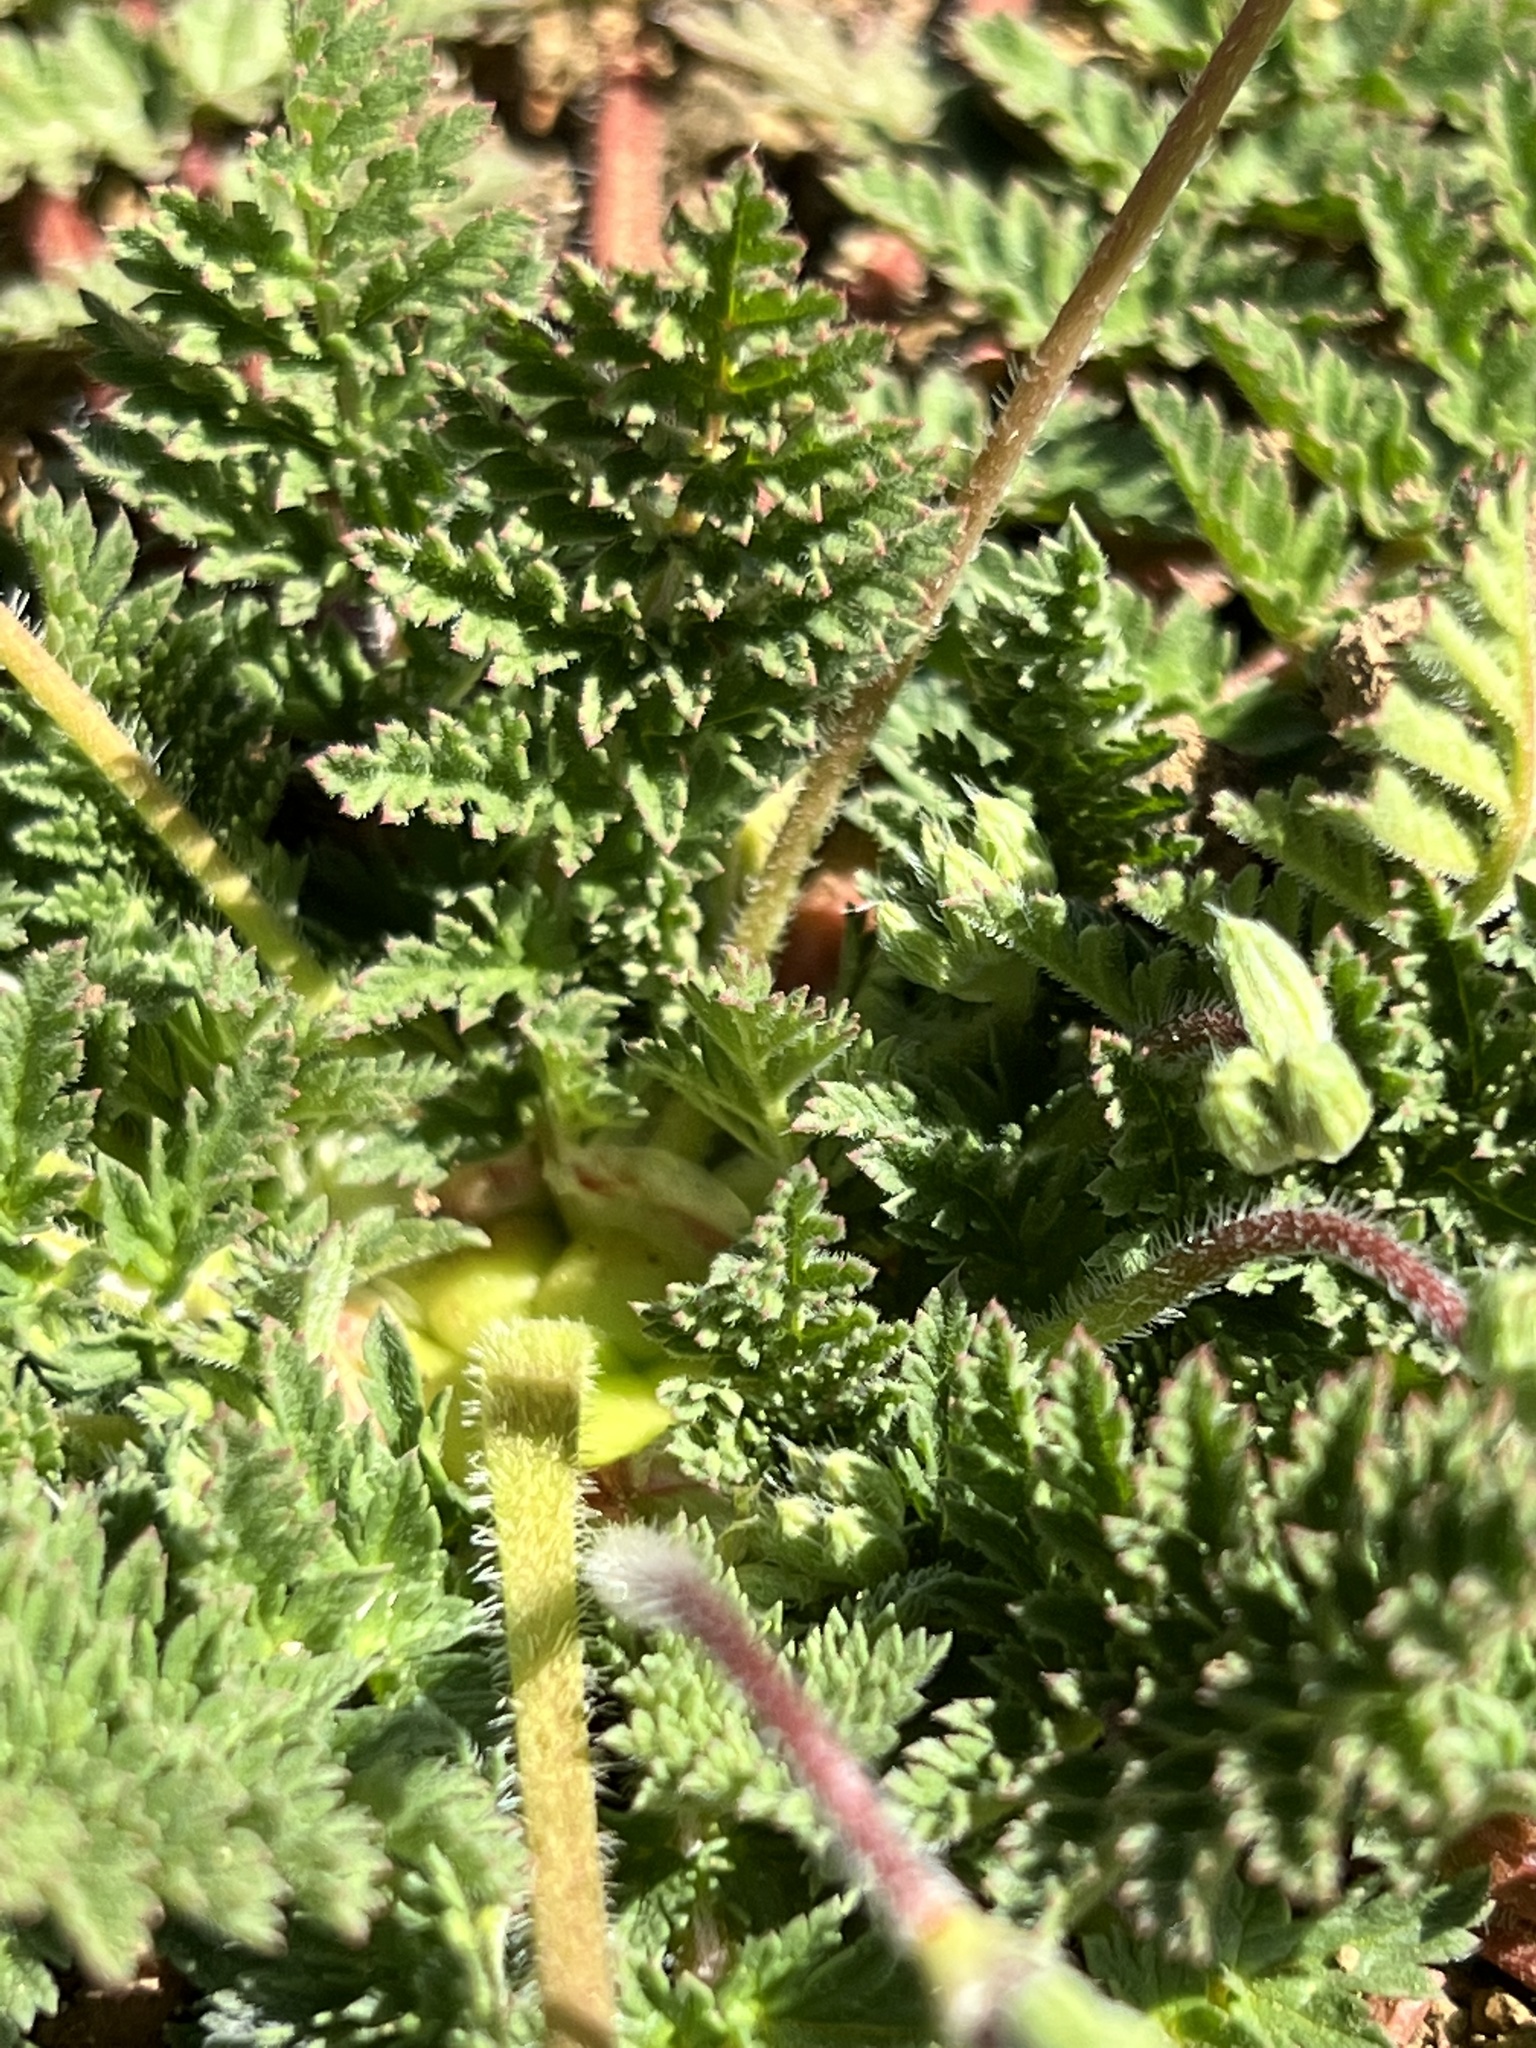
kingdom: Plantae
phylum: Tracheophyta
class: Magnoliopsida
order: Geraniales
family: Geraniaceae
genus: Erodium
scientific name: Erodium cicutarium
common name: Common stork's-bill
